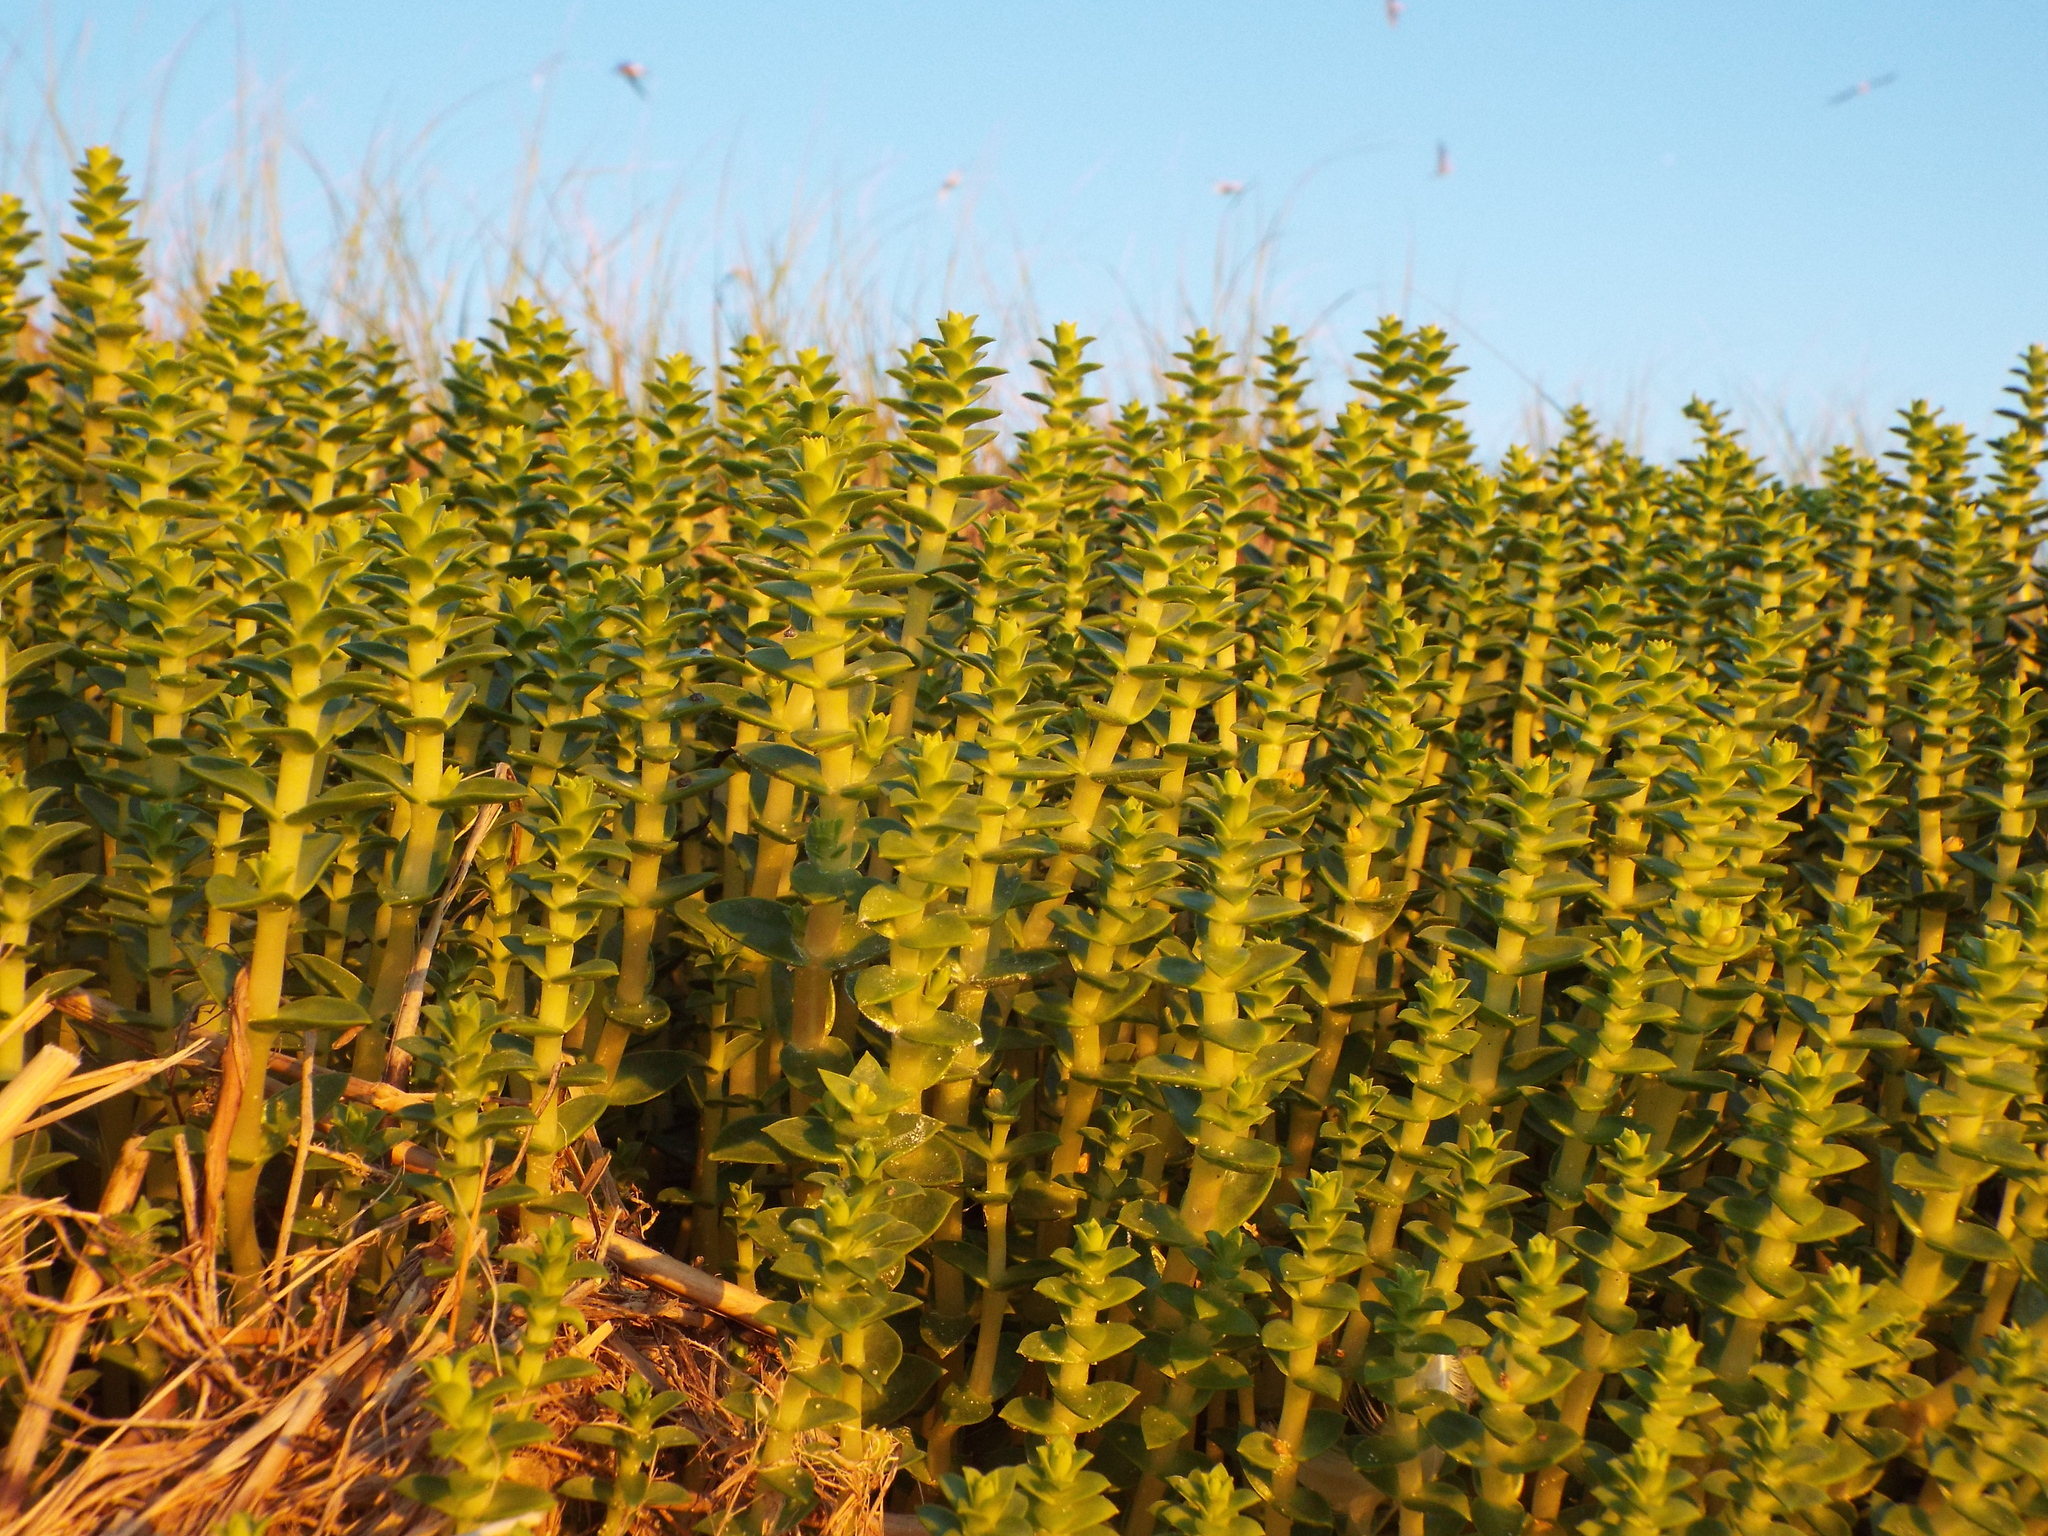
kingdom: Plantae
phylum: Tracheophyta
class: Magnoliopsida
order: Caryophyllales
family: Caryophyllaceae
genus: Honckenya
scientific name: Honckenya peploides
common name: Sea sandwort
